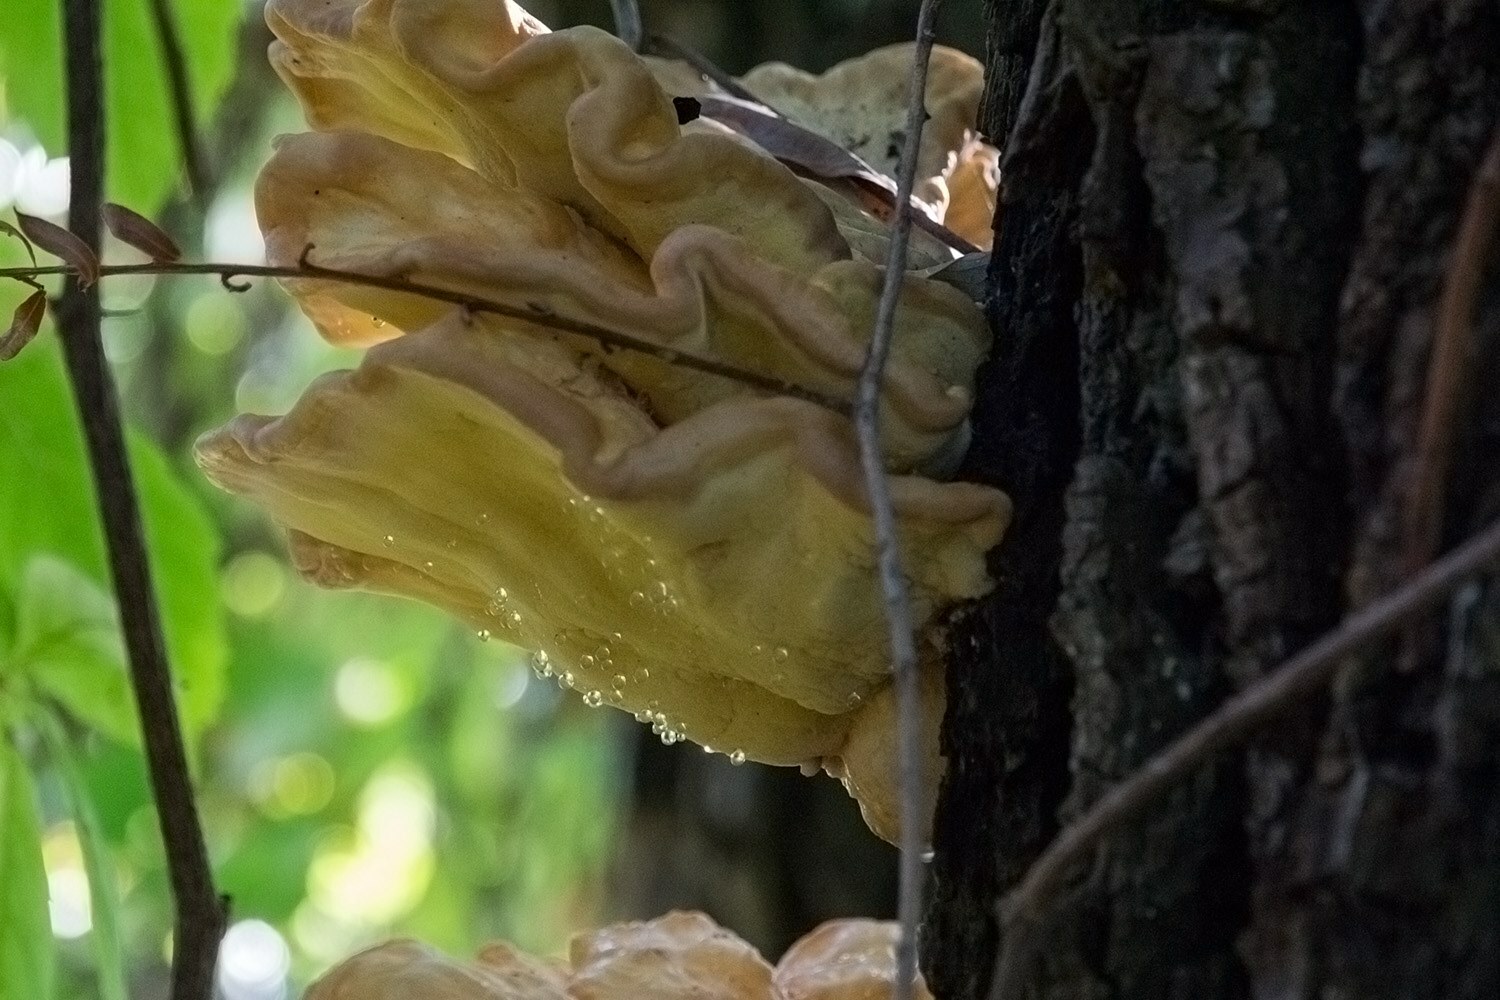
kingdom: Fungi
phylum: Basidiomycota
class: Agaricomycetes
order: Polyporales
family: Laetiporaceae
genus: Laetiporus
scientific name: Laetiporus sulphureus
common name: Chicken of the woods
